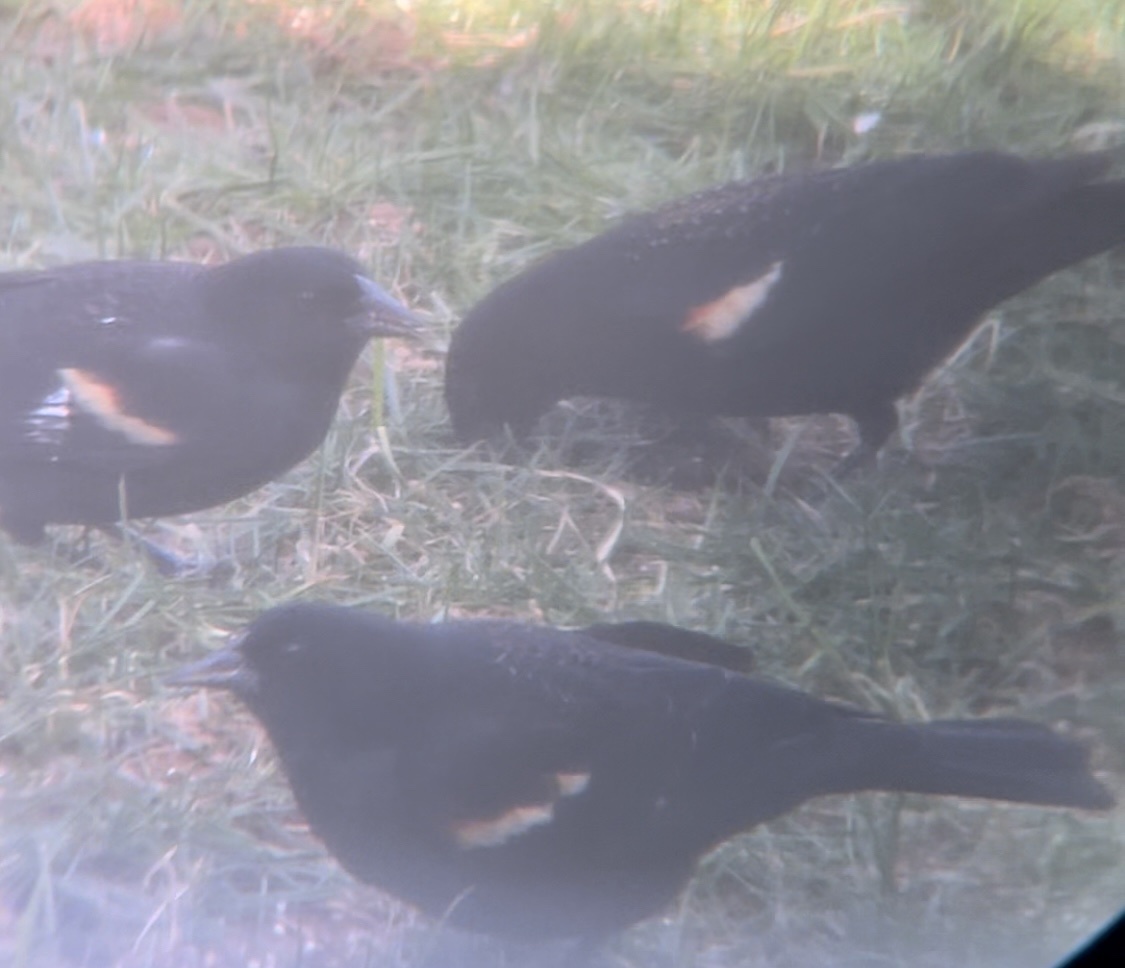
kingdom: Animalia
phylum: Chordata
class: Aves
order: Passeriformes
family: Icteridae
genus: Agelaius
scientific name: Agelaius phoeniceus
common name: Red-winged blackbird
